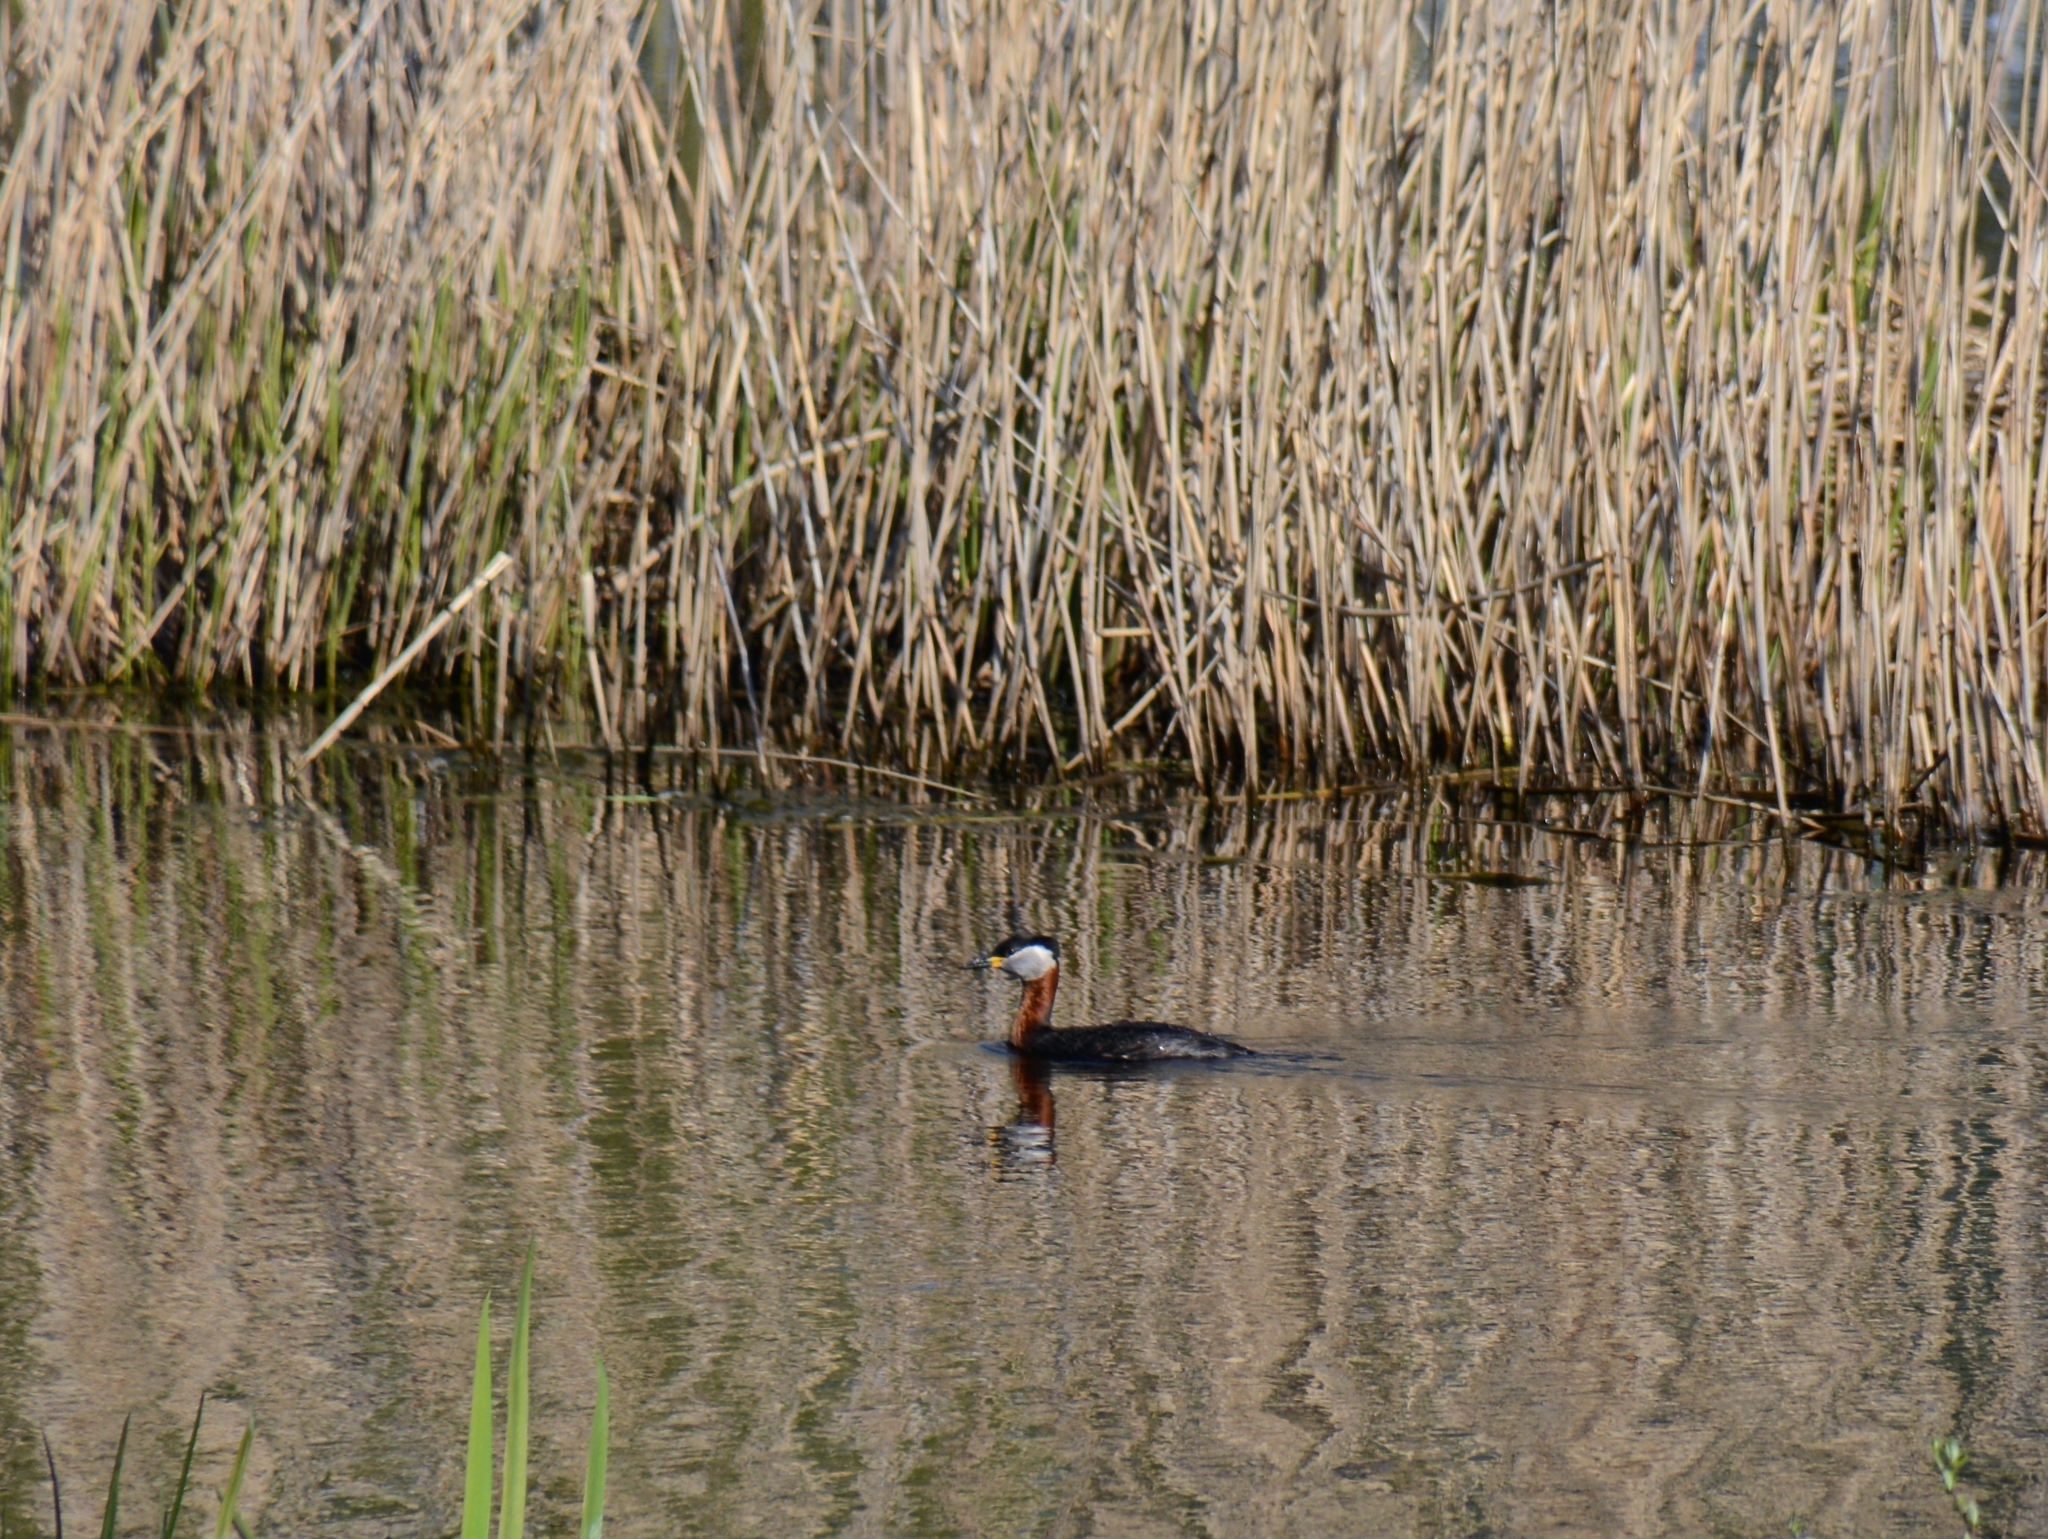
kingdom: Animalia
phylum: Chordata
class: Aves
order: Podicipediformes
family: Podicipedidae
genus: Podiceps
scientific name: Podiceps grisegena
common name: Red-necked grebe
